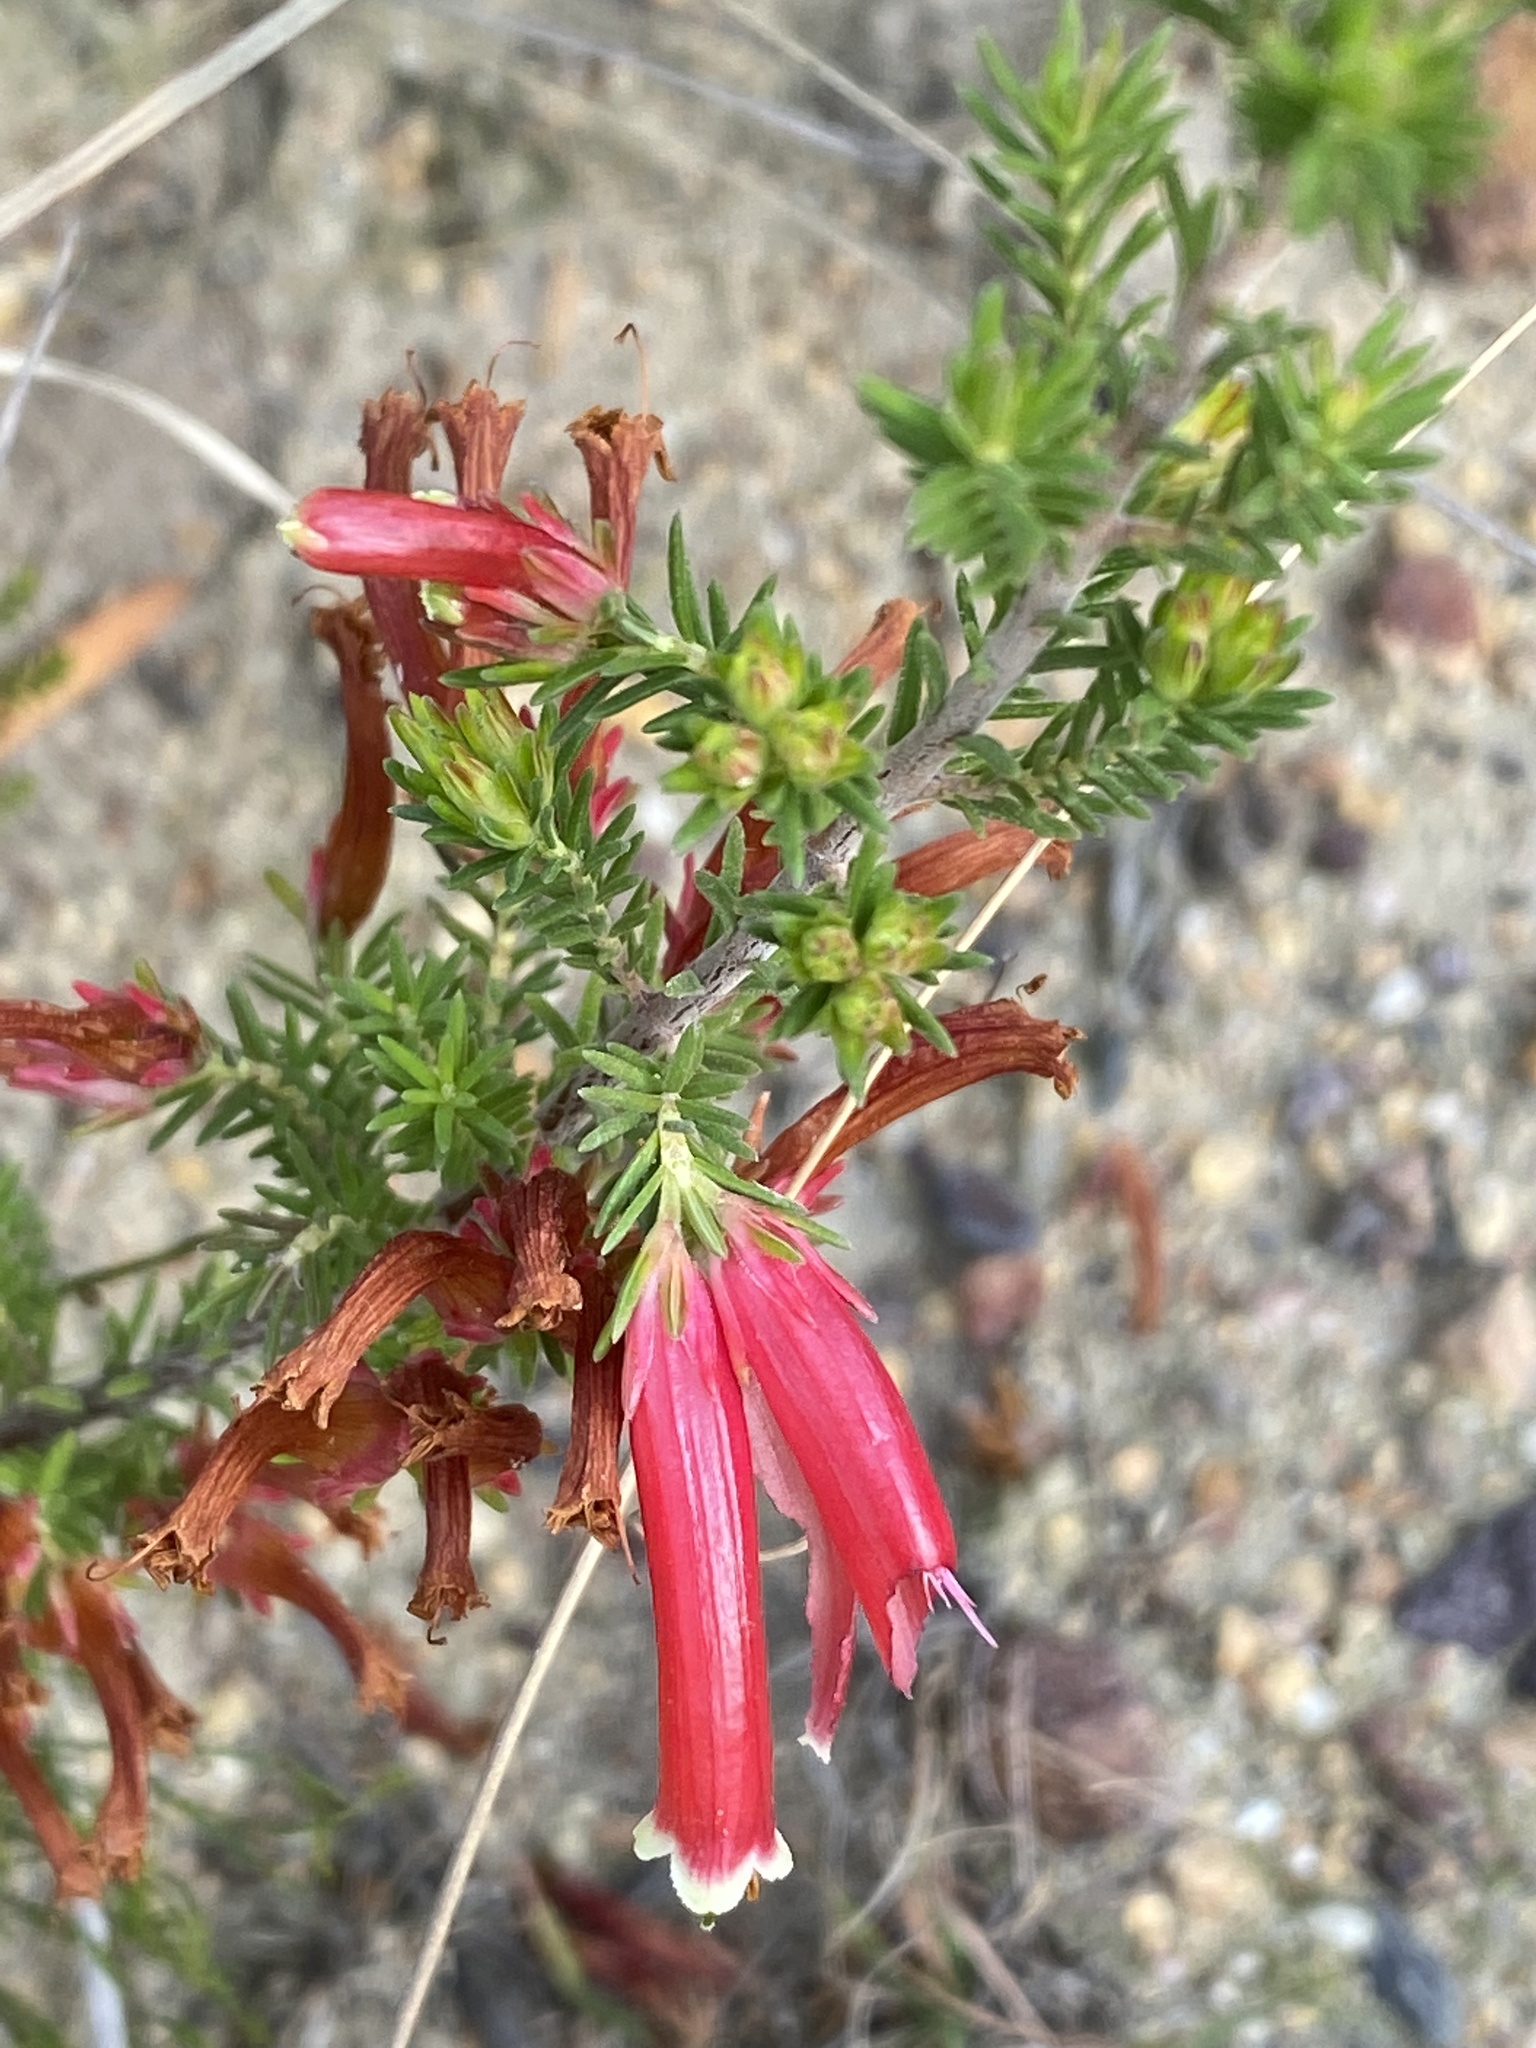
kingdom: Plantae
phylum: Tracheophyta
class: Magnoliopsida
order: Ericales
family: Ericaceae
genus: Erica
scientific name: Erica versicolor
